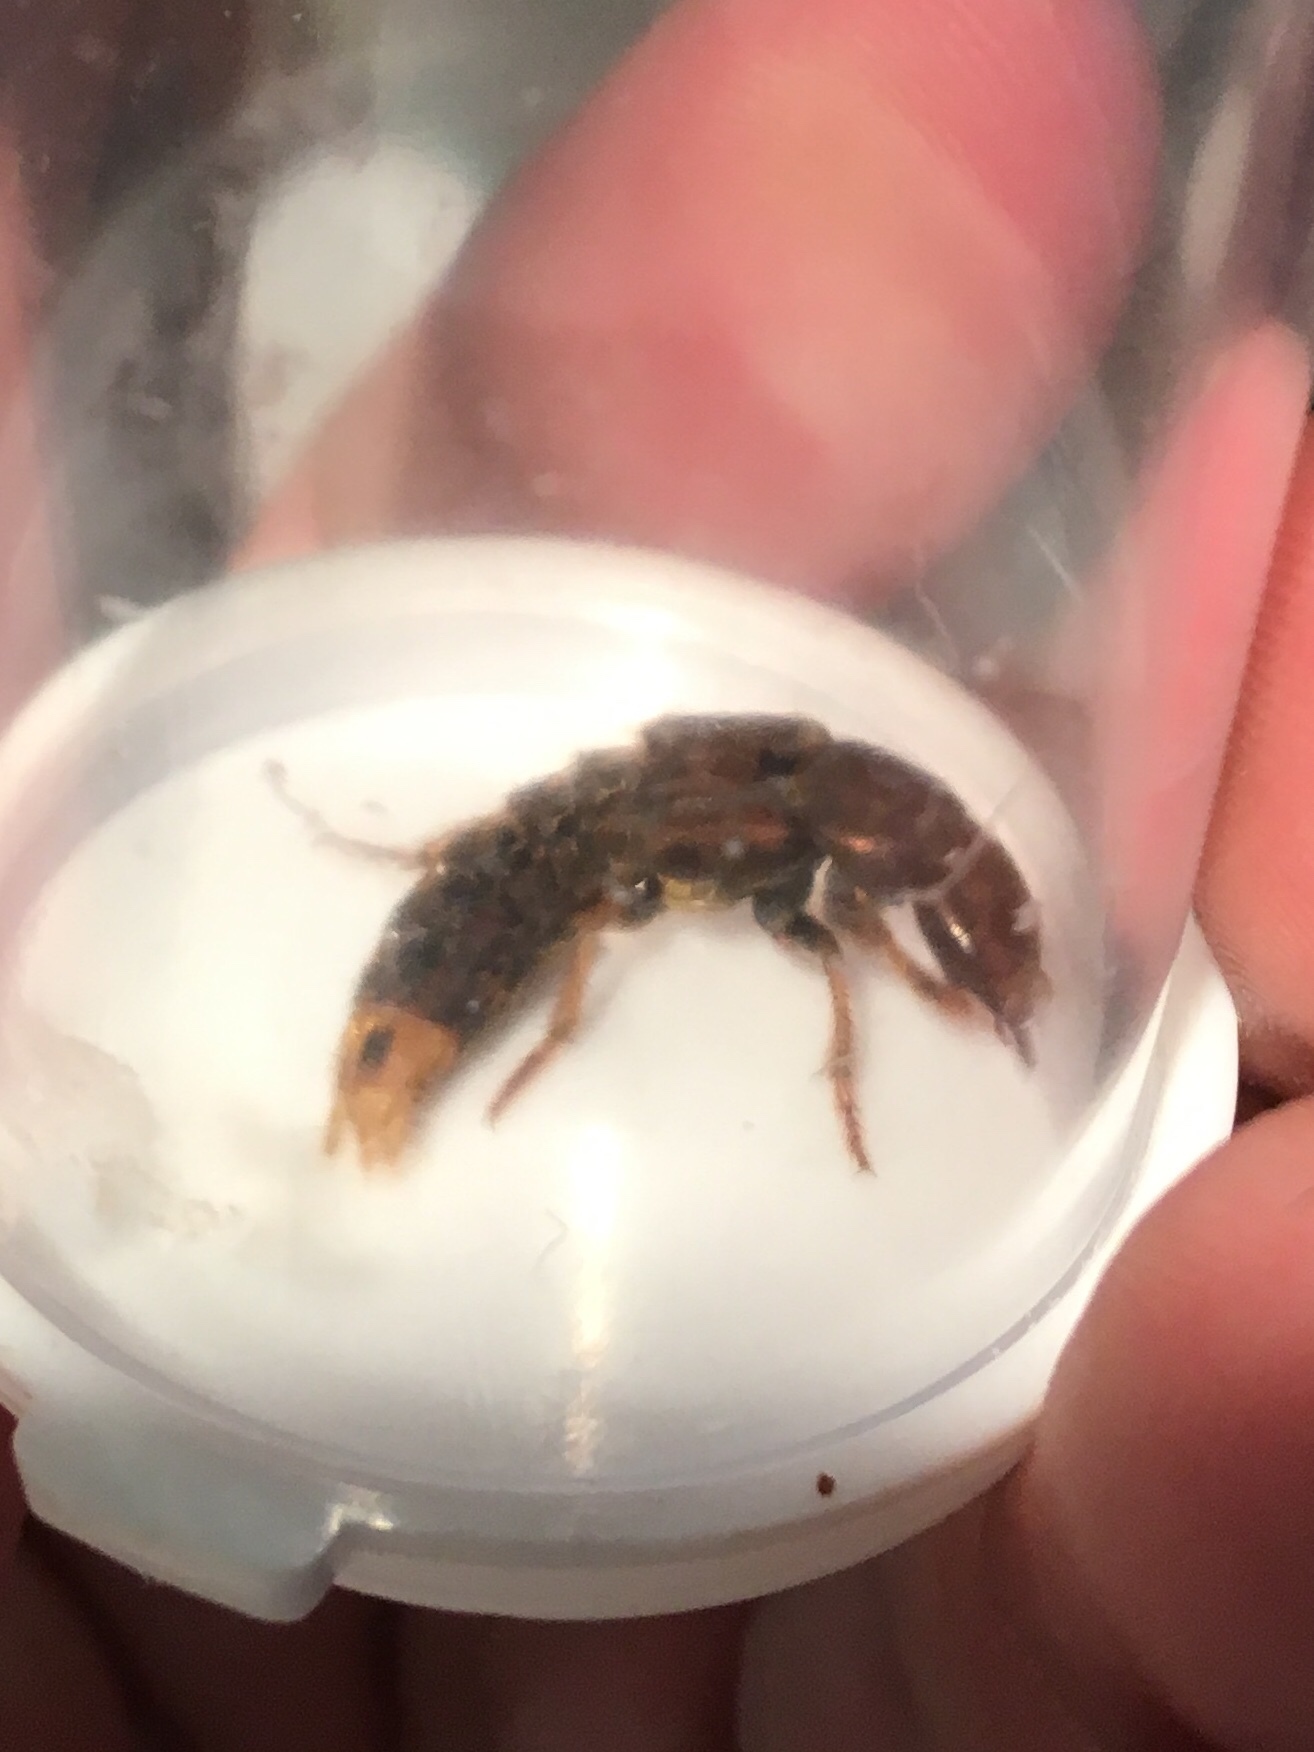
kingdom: Animalia
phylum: Arthropoda
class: Insecta
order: Coleoptera
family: Staphylinidae
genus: Platydracus
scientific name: Platydracus maculosus
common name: Brown rove beetle
